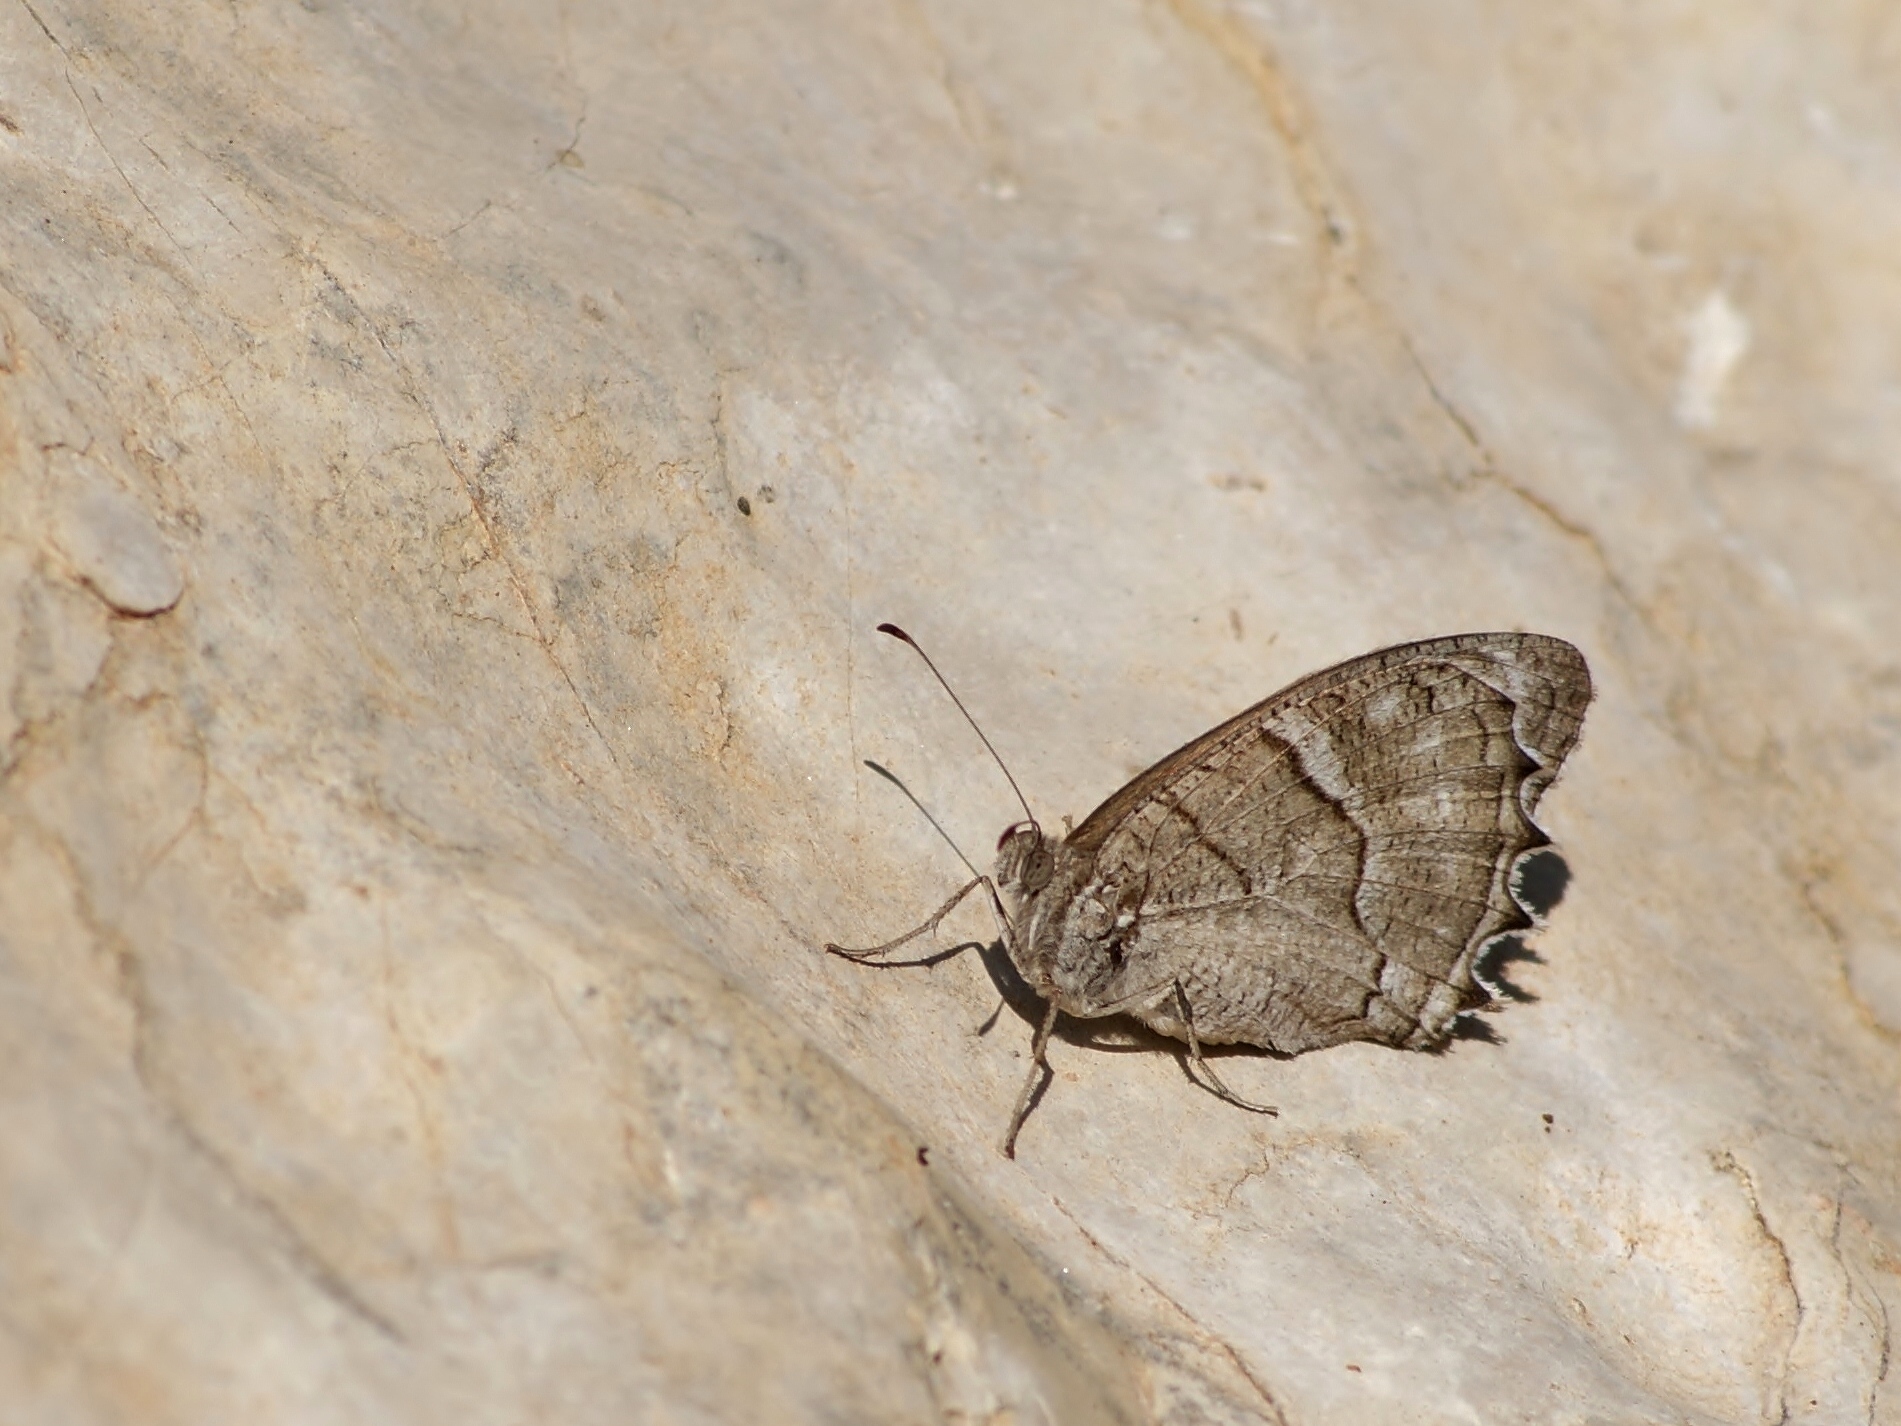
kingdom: Animalia
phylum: Arthropoda
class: Insecta
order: Lepidoptera
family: Nymphalidae
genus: Hipparchia
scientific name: Hipparchia pisidice
